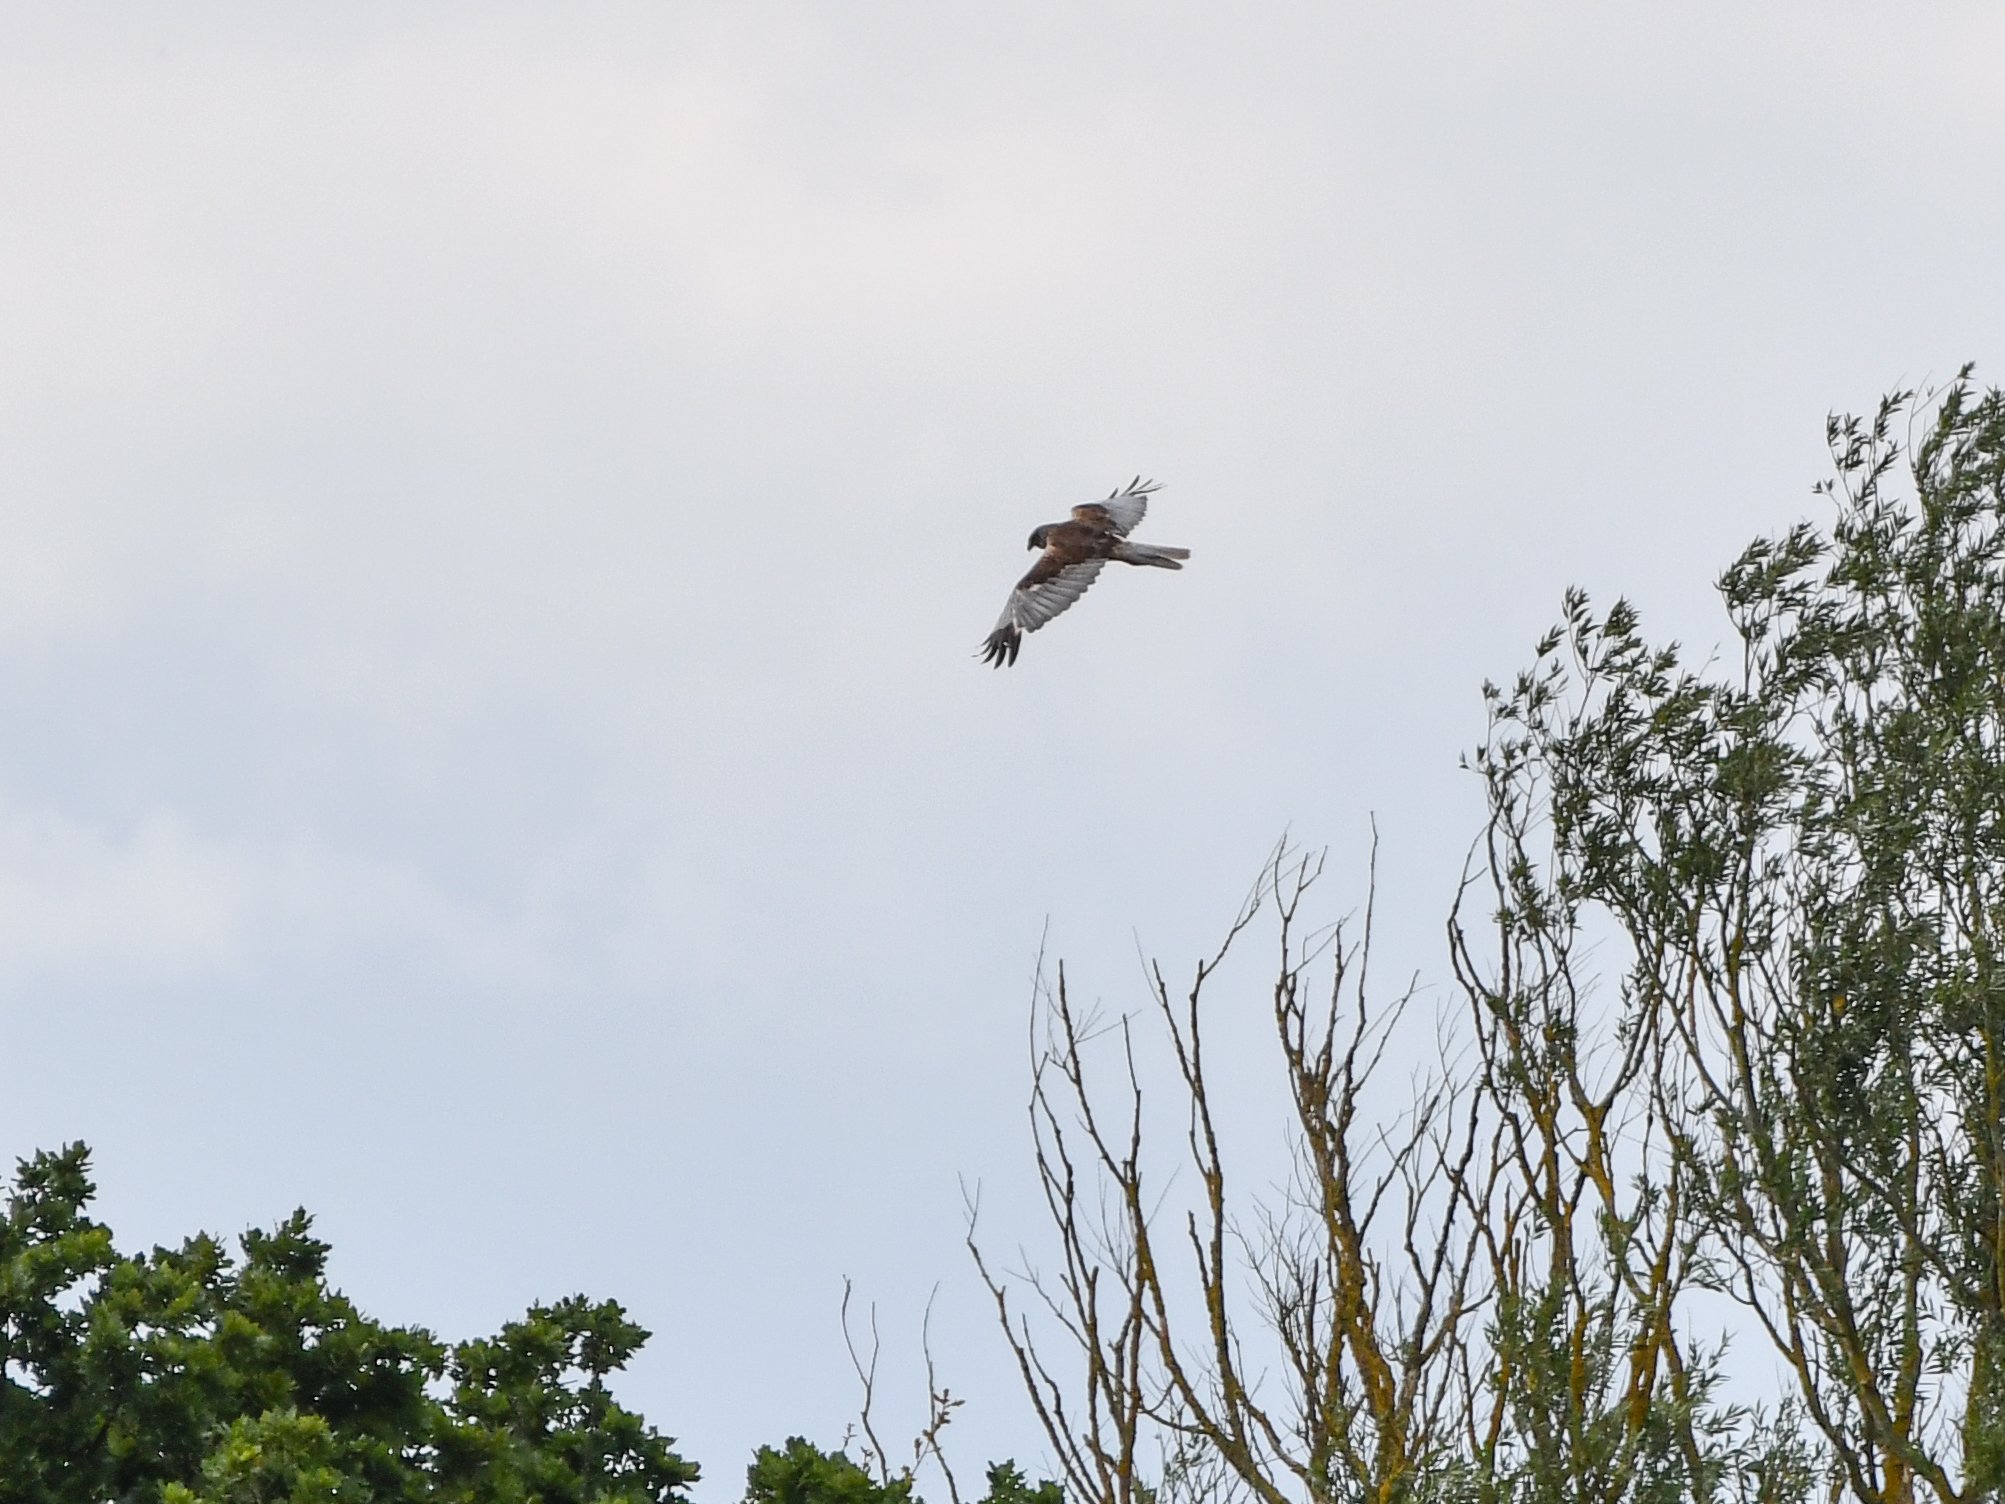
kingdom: Animalia
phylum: Chordata
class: Aves
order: Accipitriformes
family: Accipitridae
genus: Circus
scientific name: Circus aeruginosus
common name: Western marsh harrier
